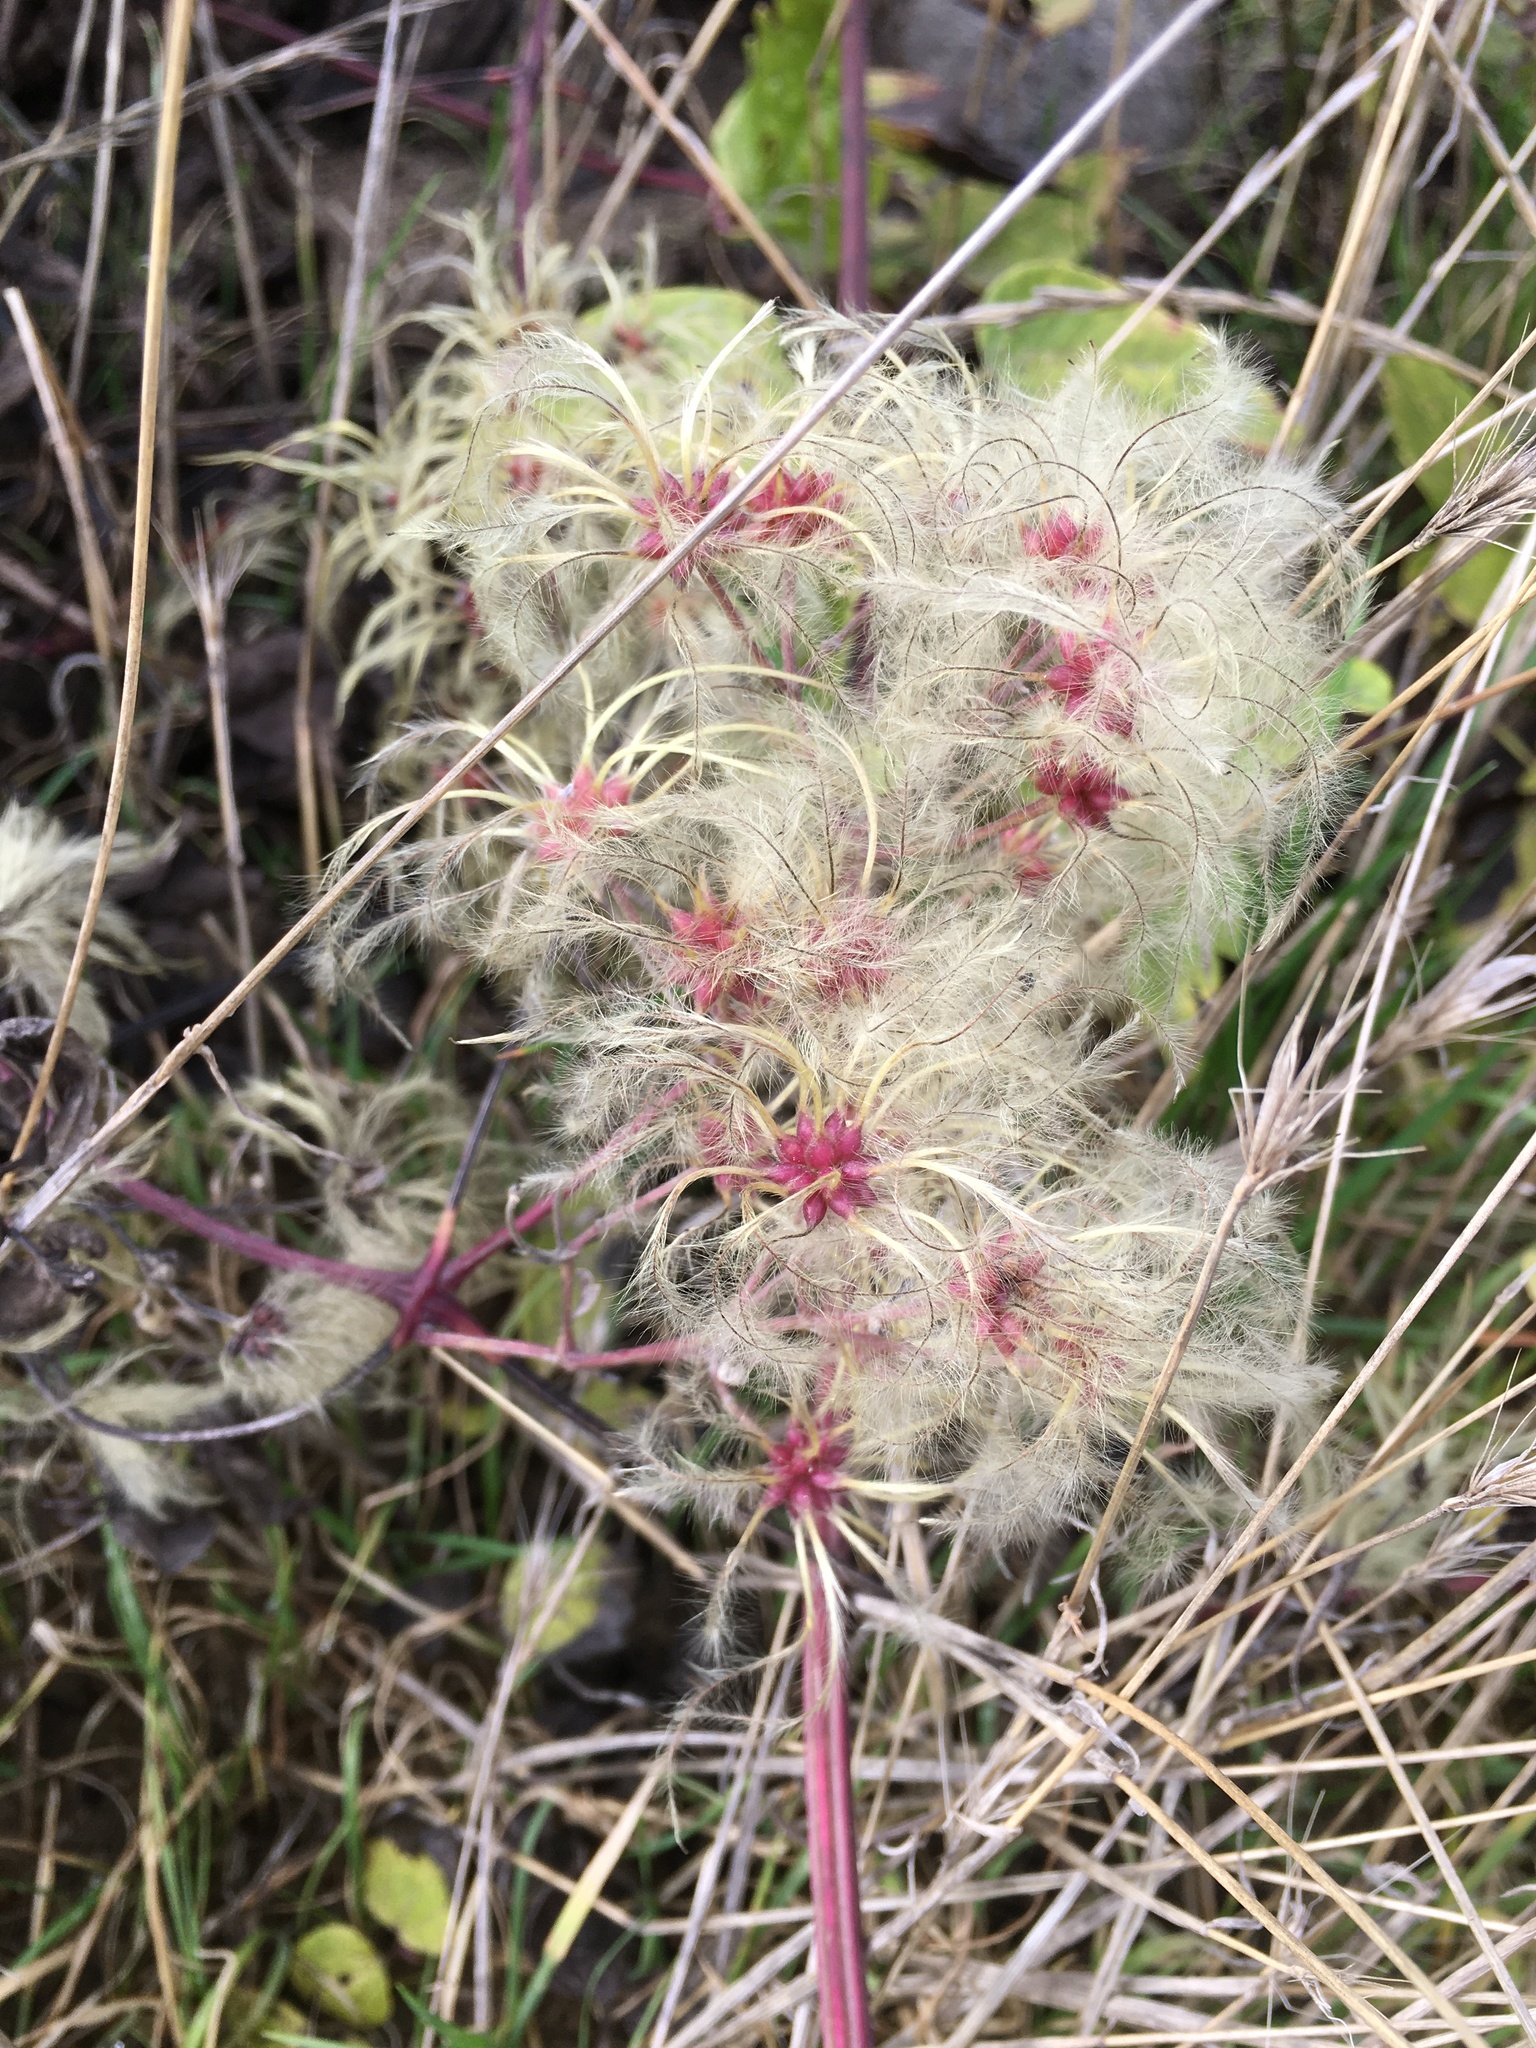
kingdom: Plantae
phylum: Tracheophyta
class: Magnoliopsida
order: Ranunculales
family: Ranunculaceae
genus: Clematis
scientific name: Clematis vitalba
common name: Evergreen clematis
